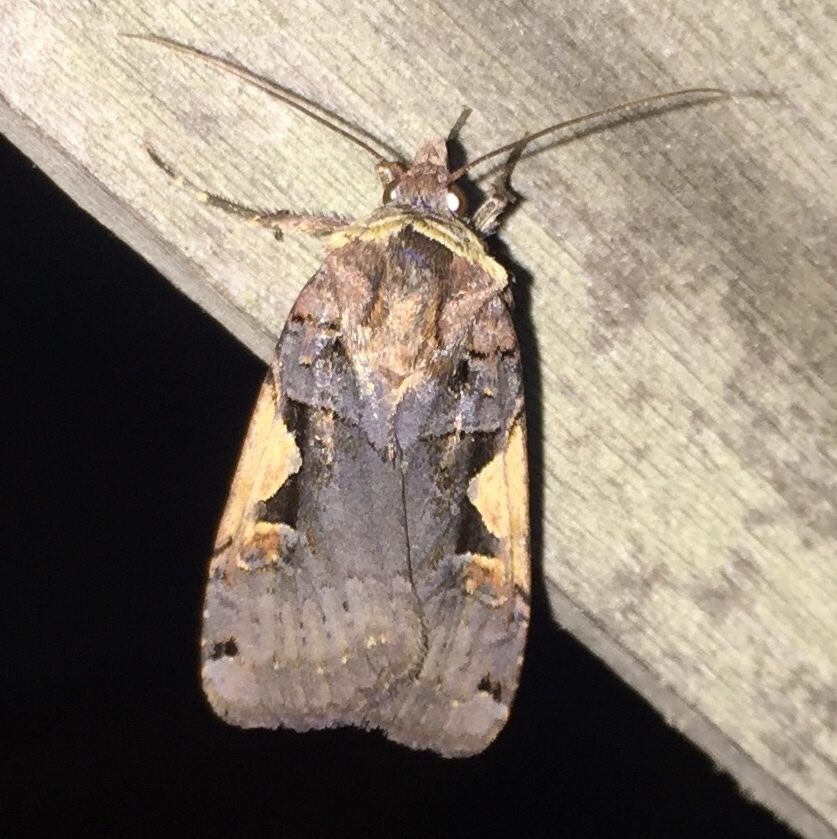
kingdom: Animalia
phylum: Arthropoda
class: Insecta
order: Lepidoptera
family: Noctuidae
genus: Xestia
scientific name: Xestia c-nigrum
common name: Setaceous hebrew character
